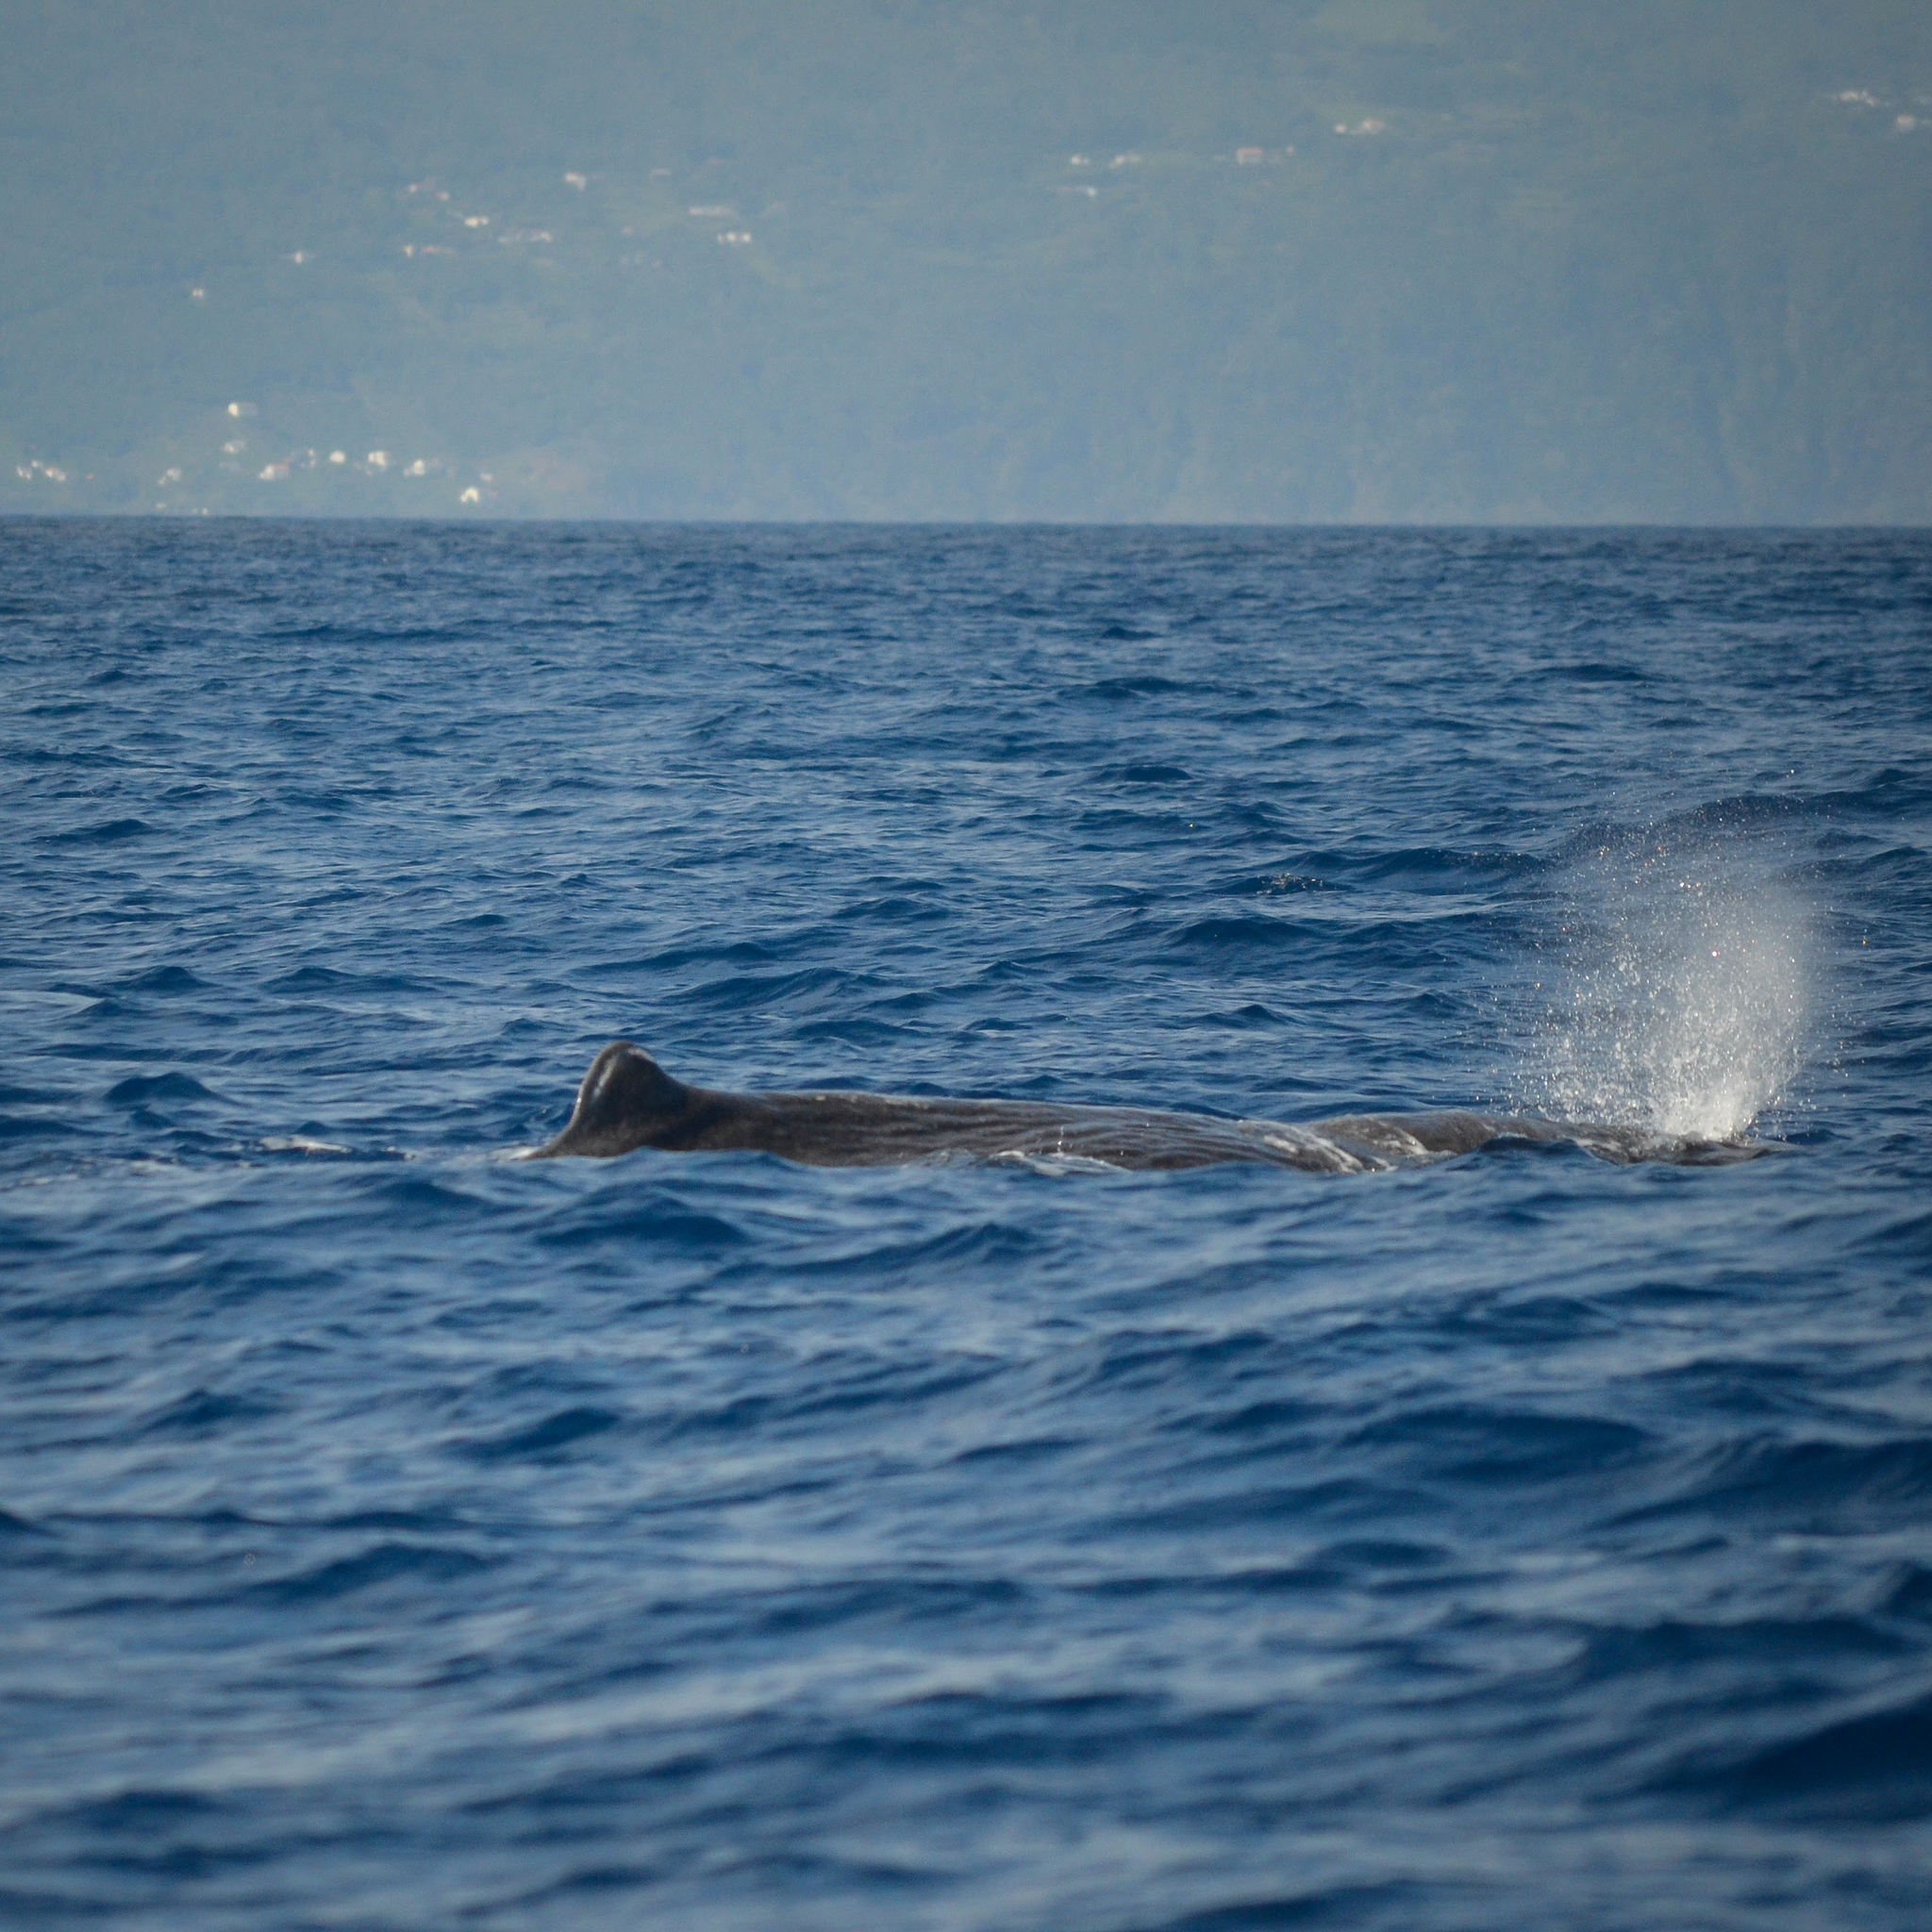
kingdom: Animalia
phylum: Chordata
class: Mammalia
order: Cetacea
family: Physeteridae
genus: Physeter
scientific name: Physeter macrocephalus
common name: Sperm whale
